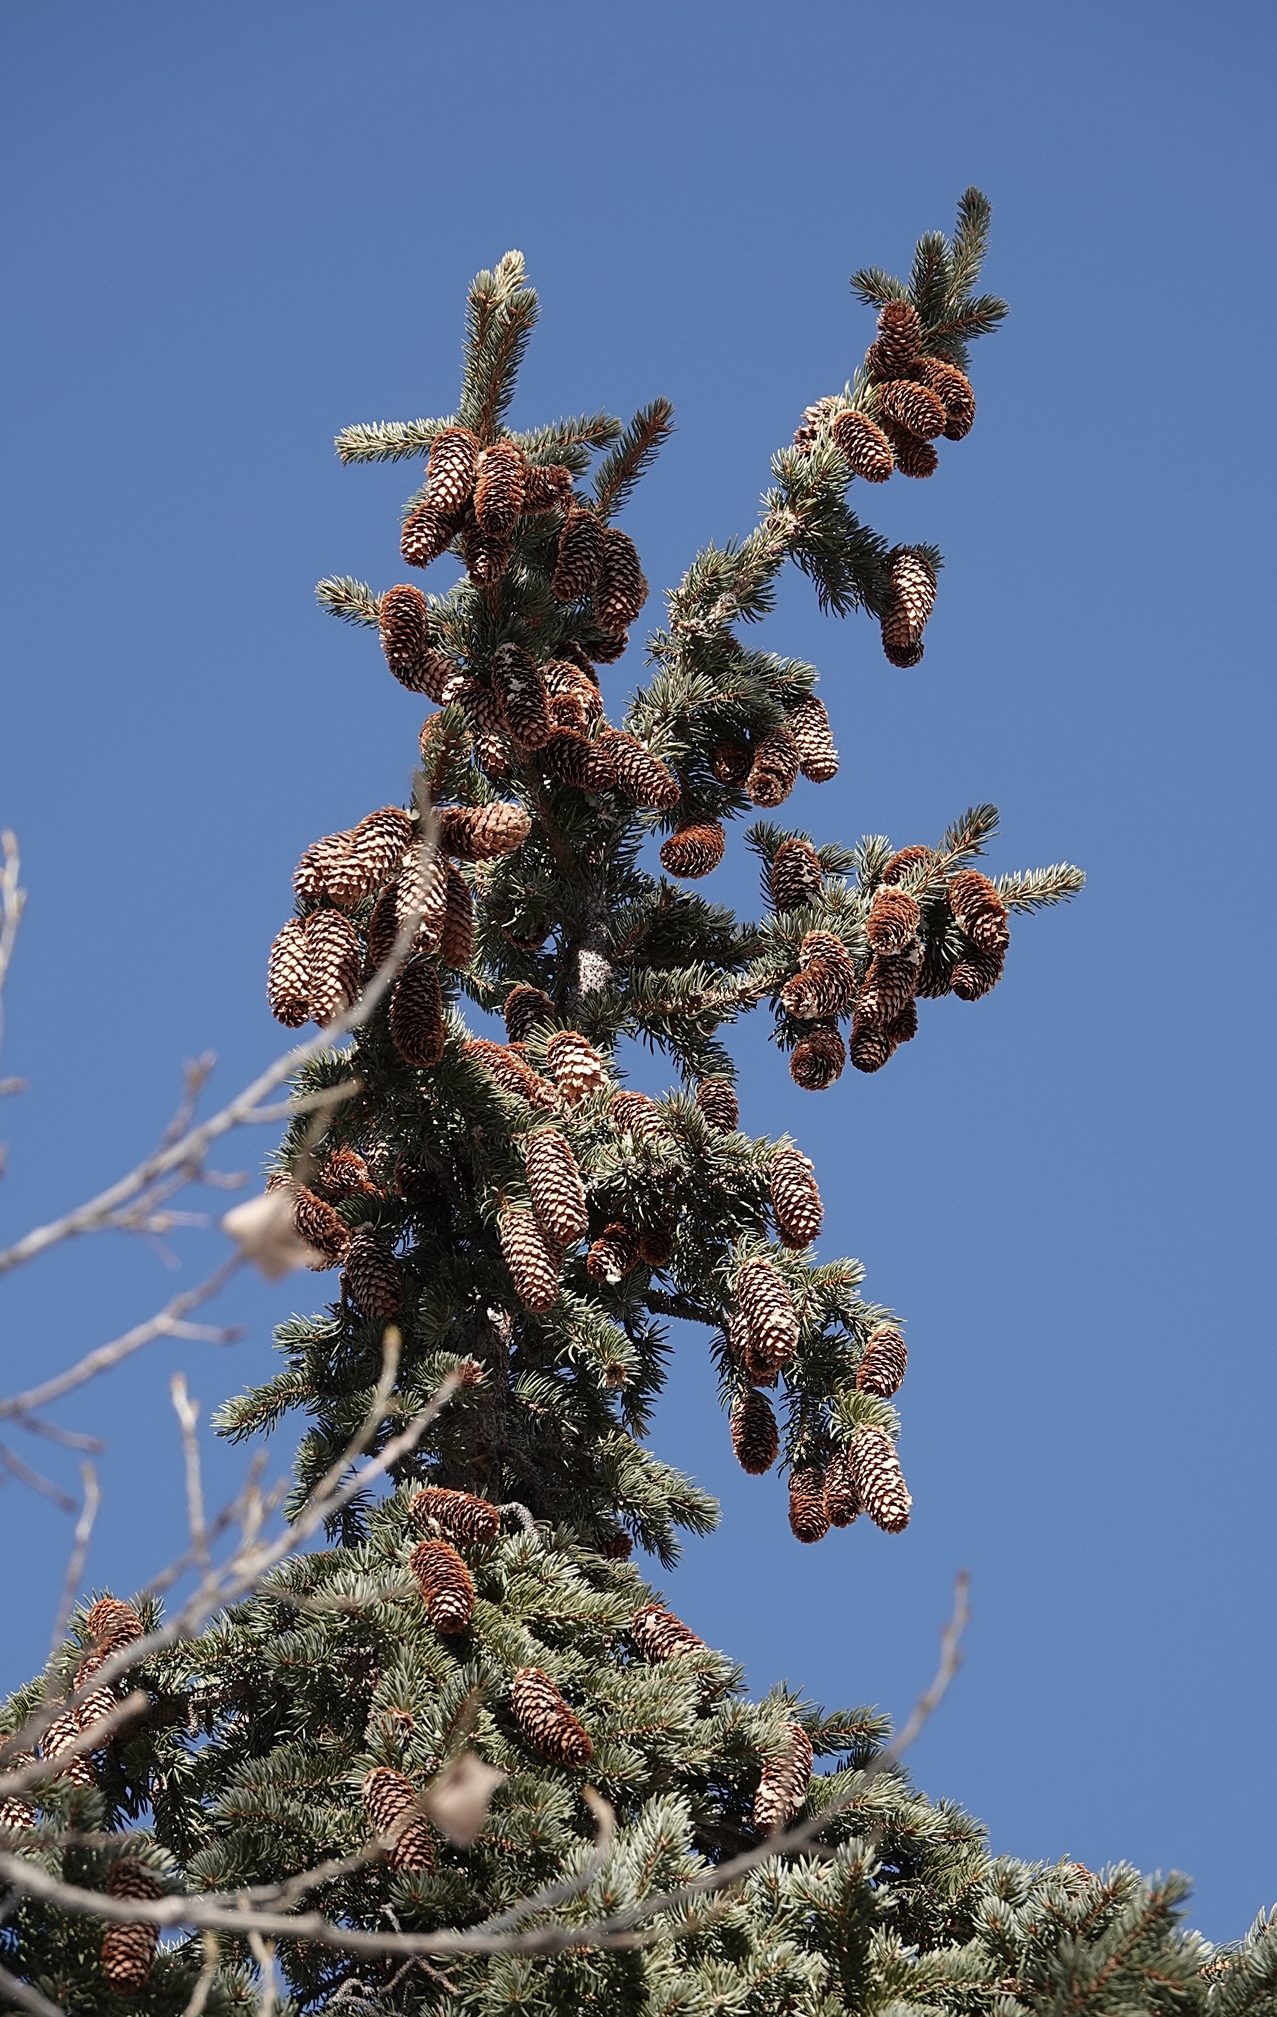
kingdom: Plantae
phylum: Tracheophyta
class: Pinopsida
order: Pinales
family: Pinaceae
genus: Picea
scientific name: Picea pungens
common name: Colorado spruce
